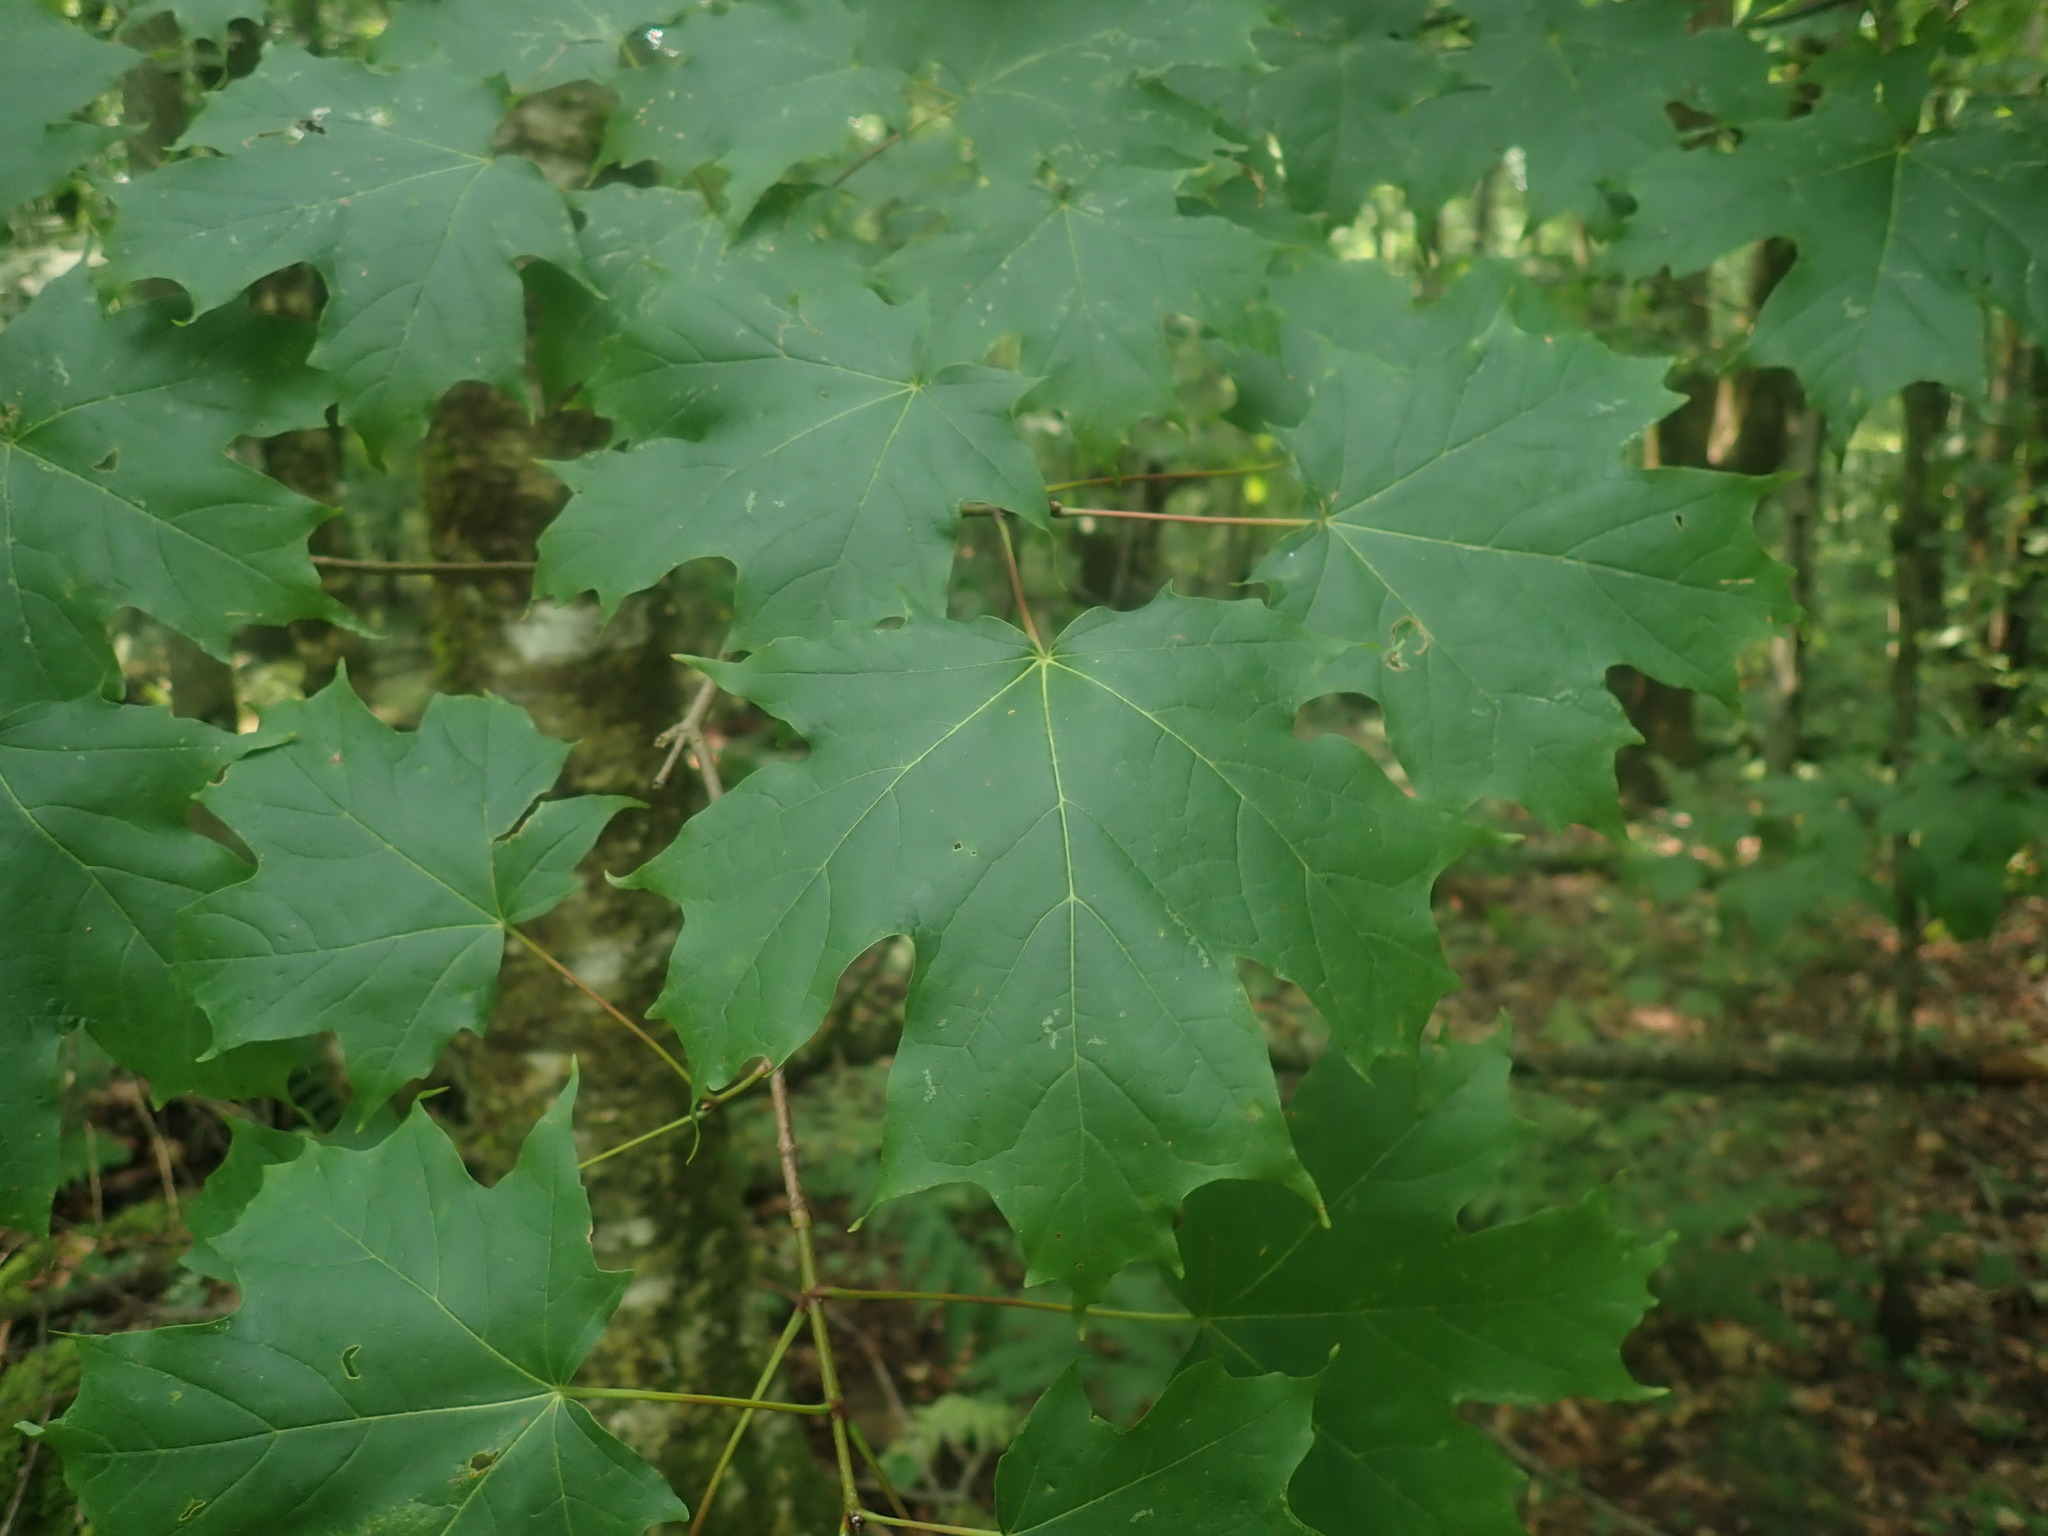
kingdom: Plantae
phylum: Tracheophyta
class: Magnoliopsida
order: Sapindales
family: Sapindaceae
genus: Acer
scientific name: Acer saccharum
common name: Sugar maple
